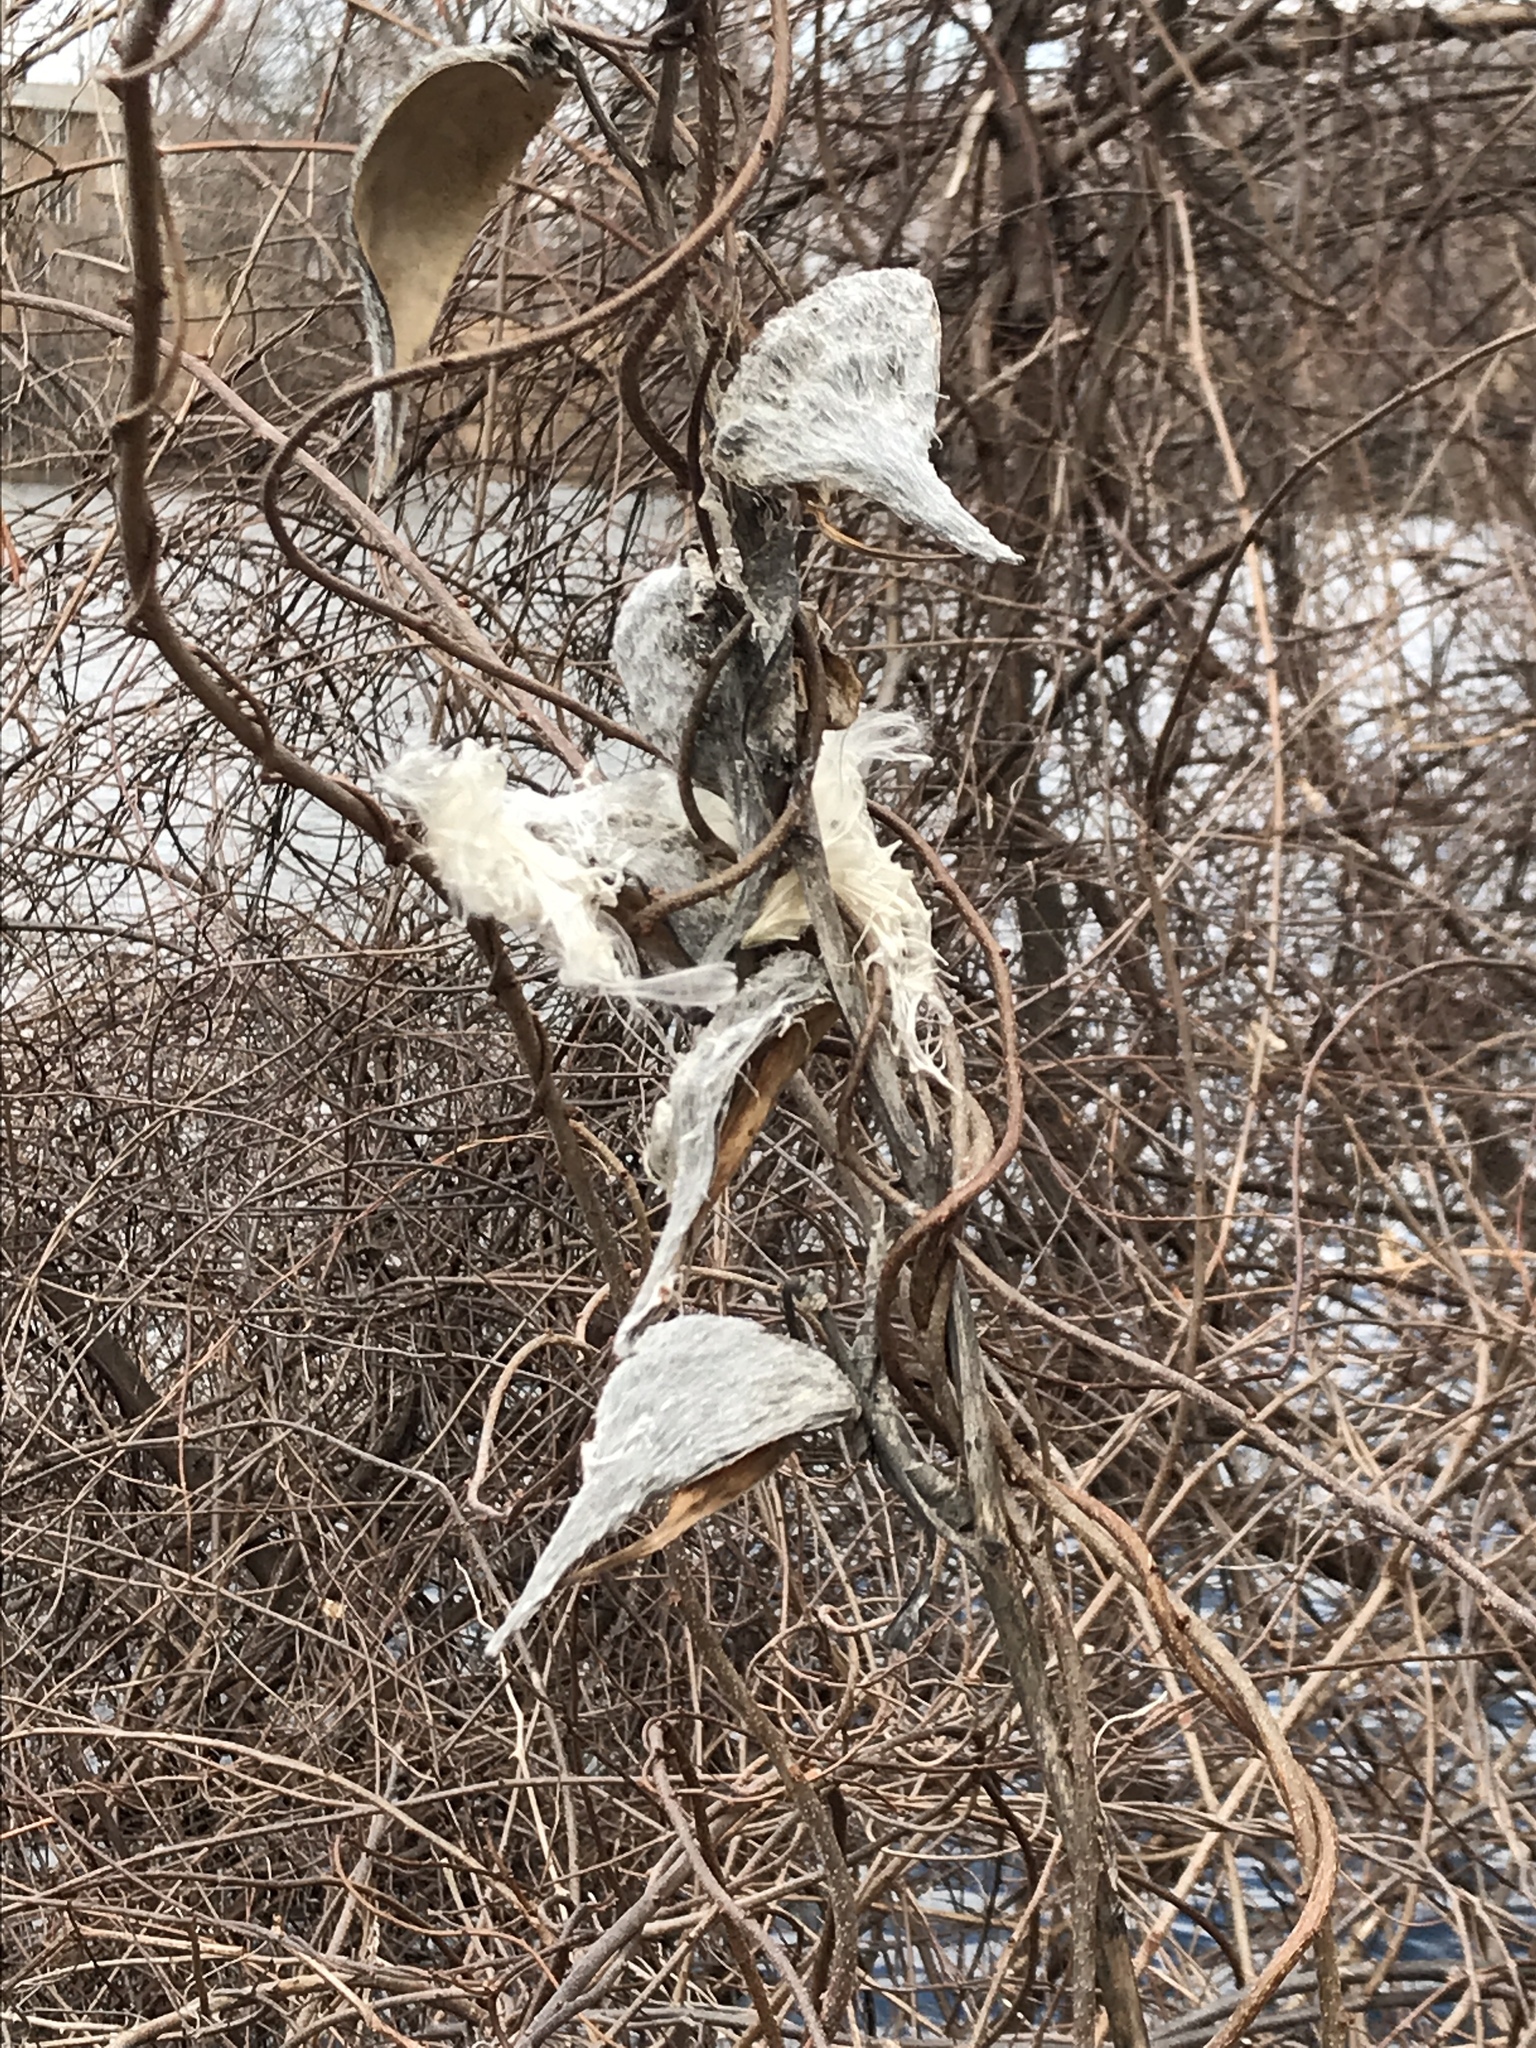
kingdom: Plantae
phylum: Tracheophyta
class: Magnoliopsida
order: Gentianales
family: Apocynaceae
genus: Asclepias
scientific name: Asclepias syriaca
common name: Common milkweed
